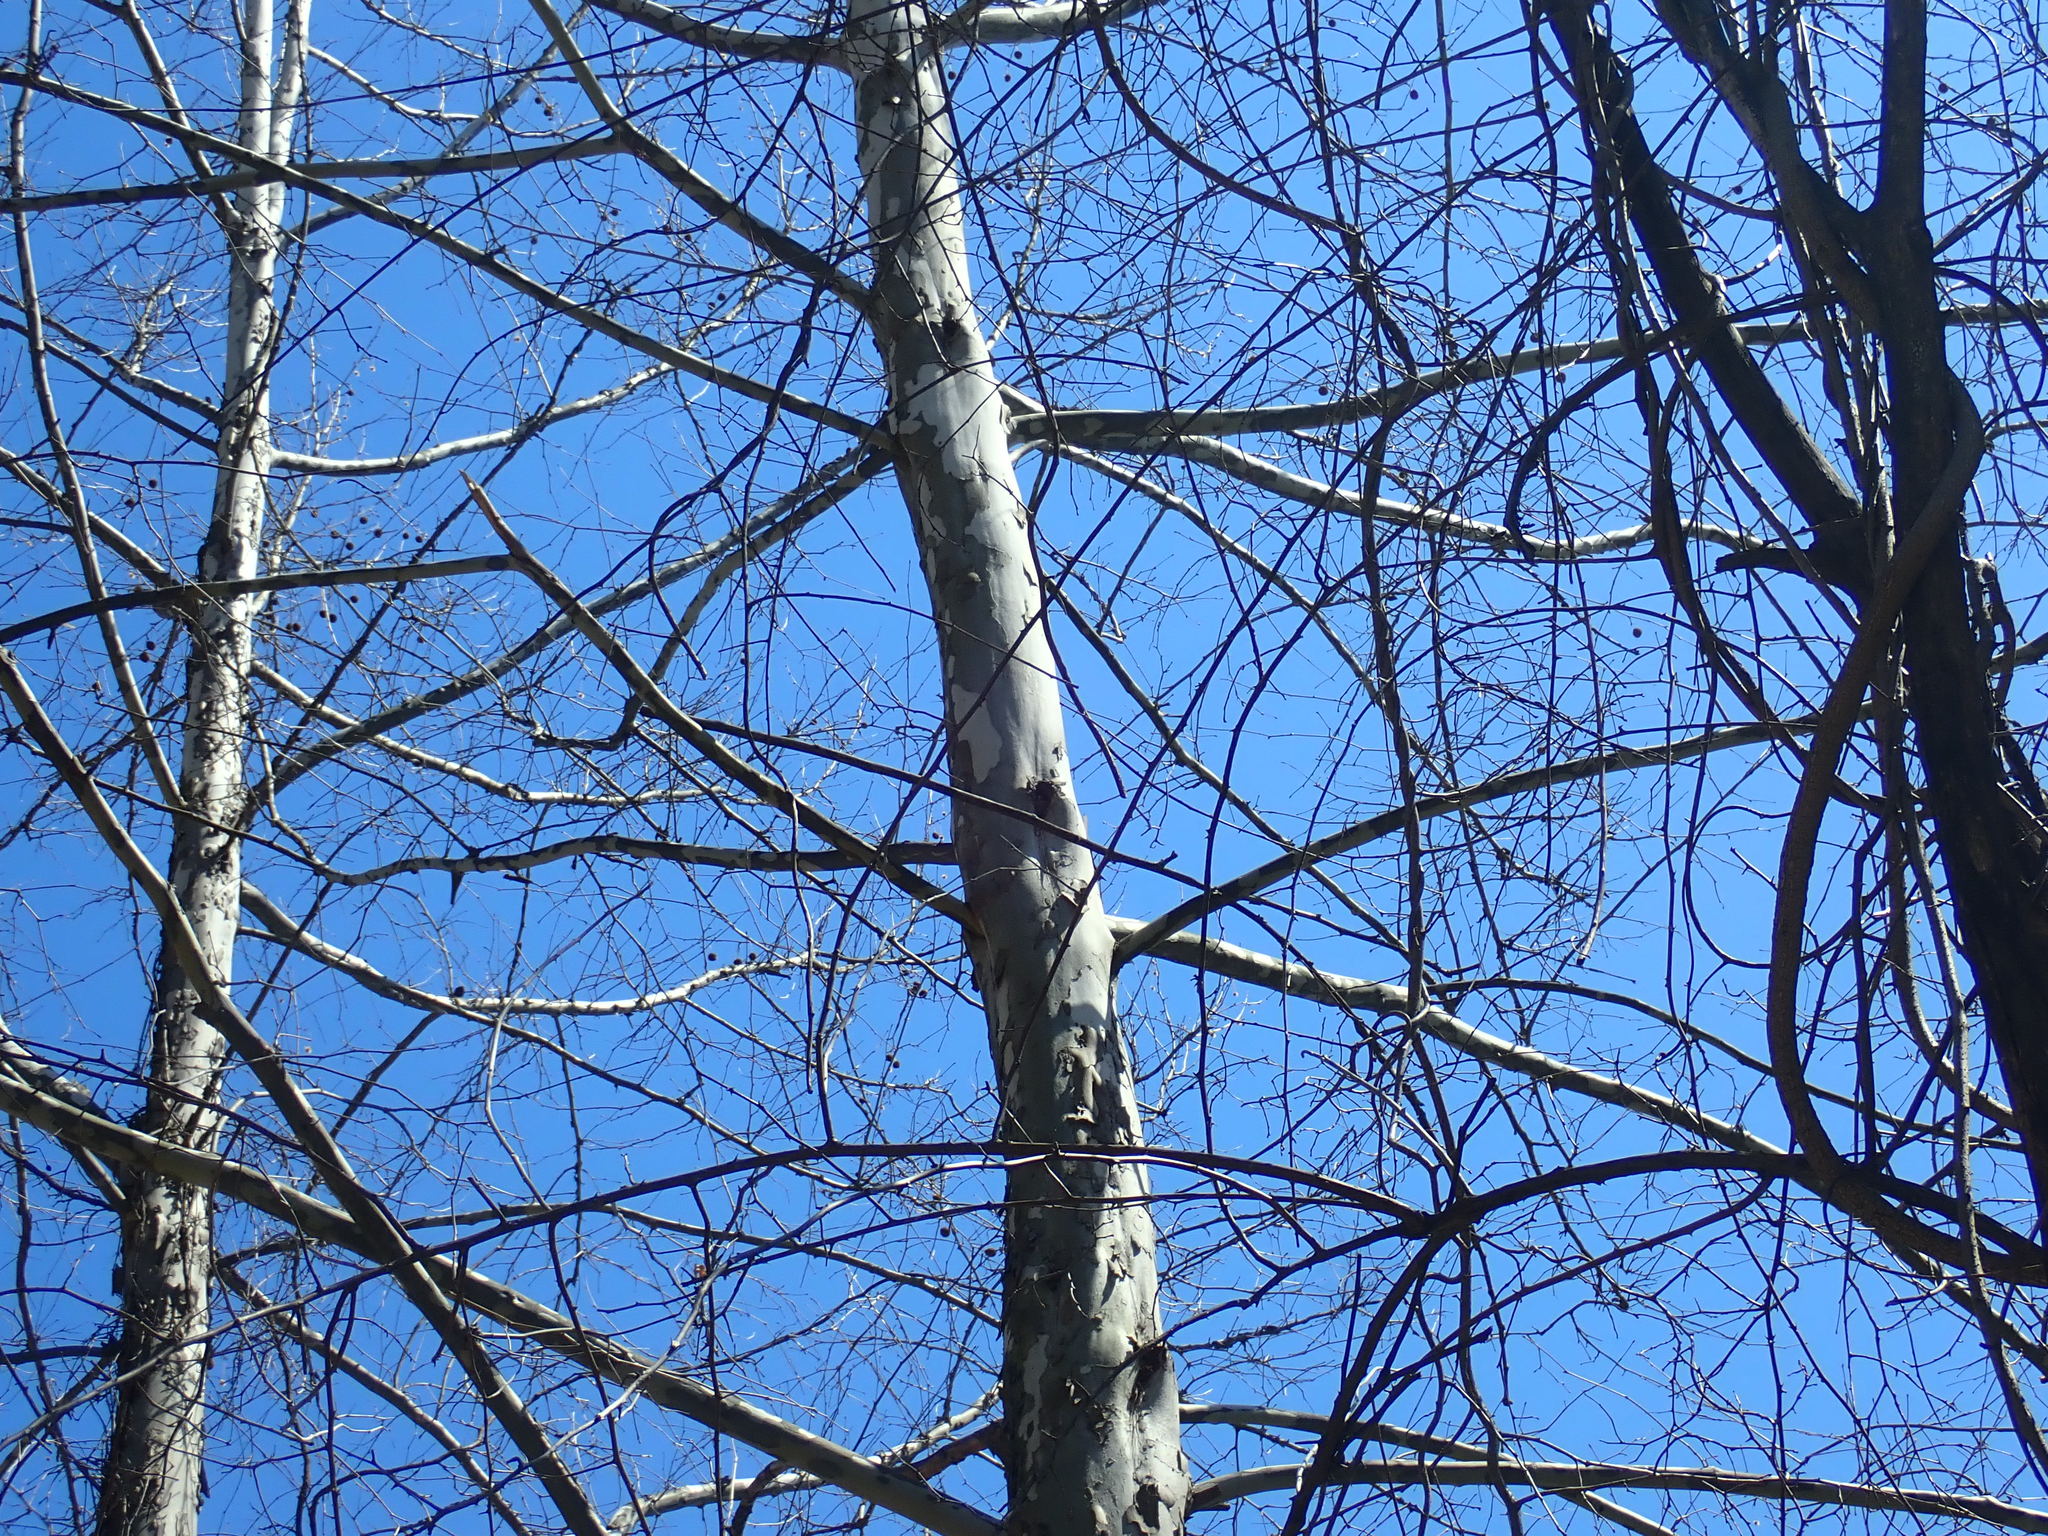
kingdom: Plantae
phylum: Tracheophyta
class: Magnoliopsida
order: Proteales
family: Platanaceae
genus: Platanus
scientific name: Platanus occidentalis
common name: American sycamore
